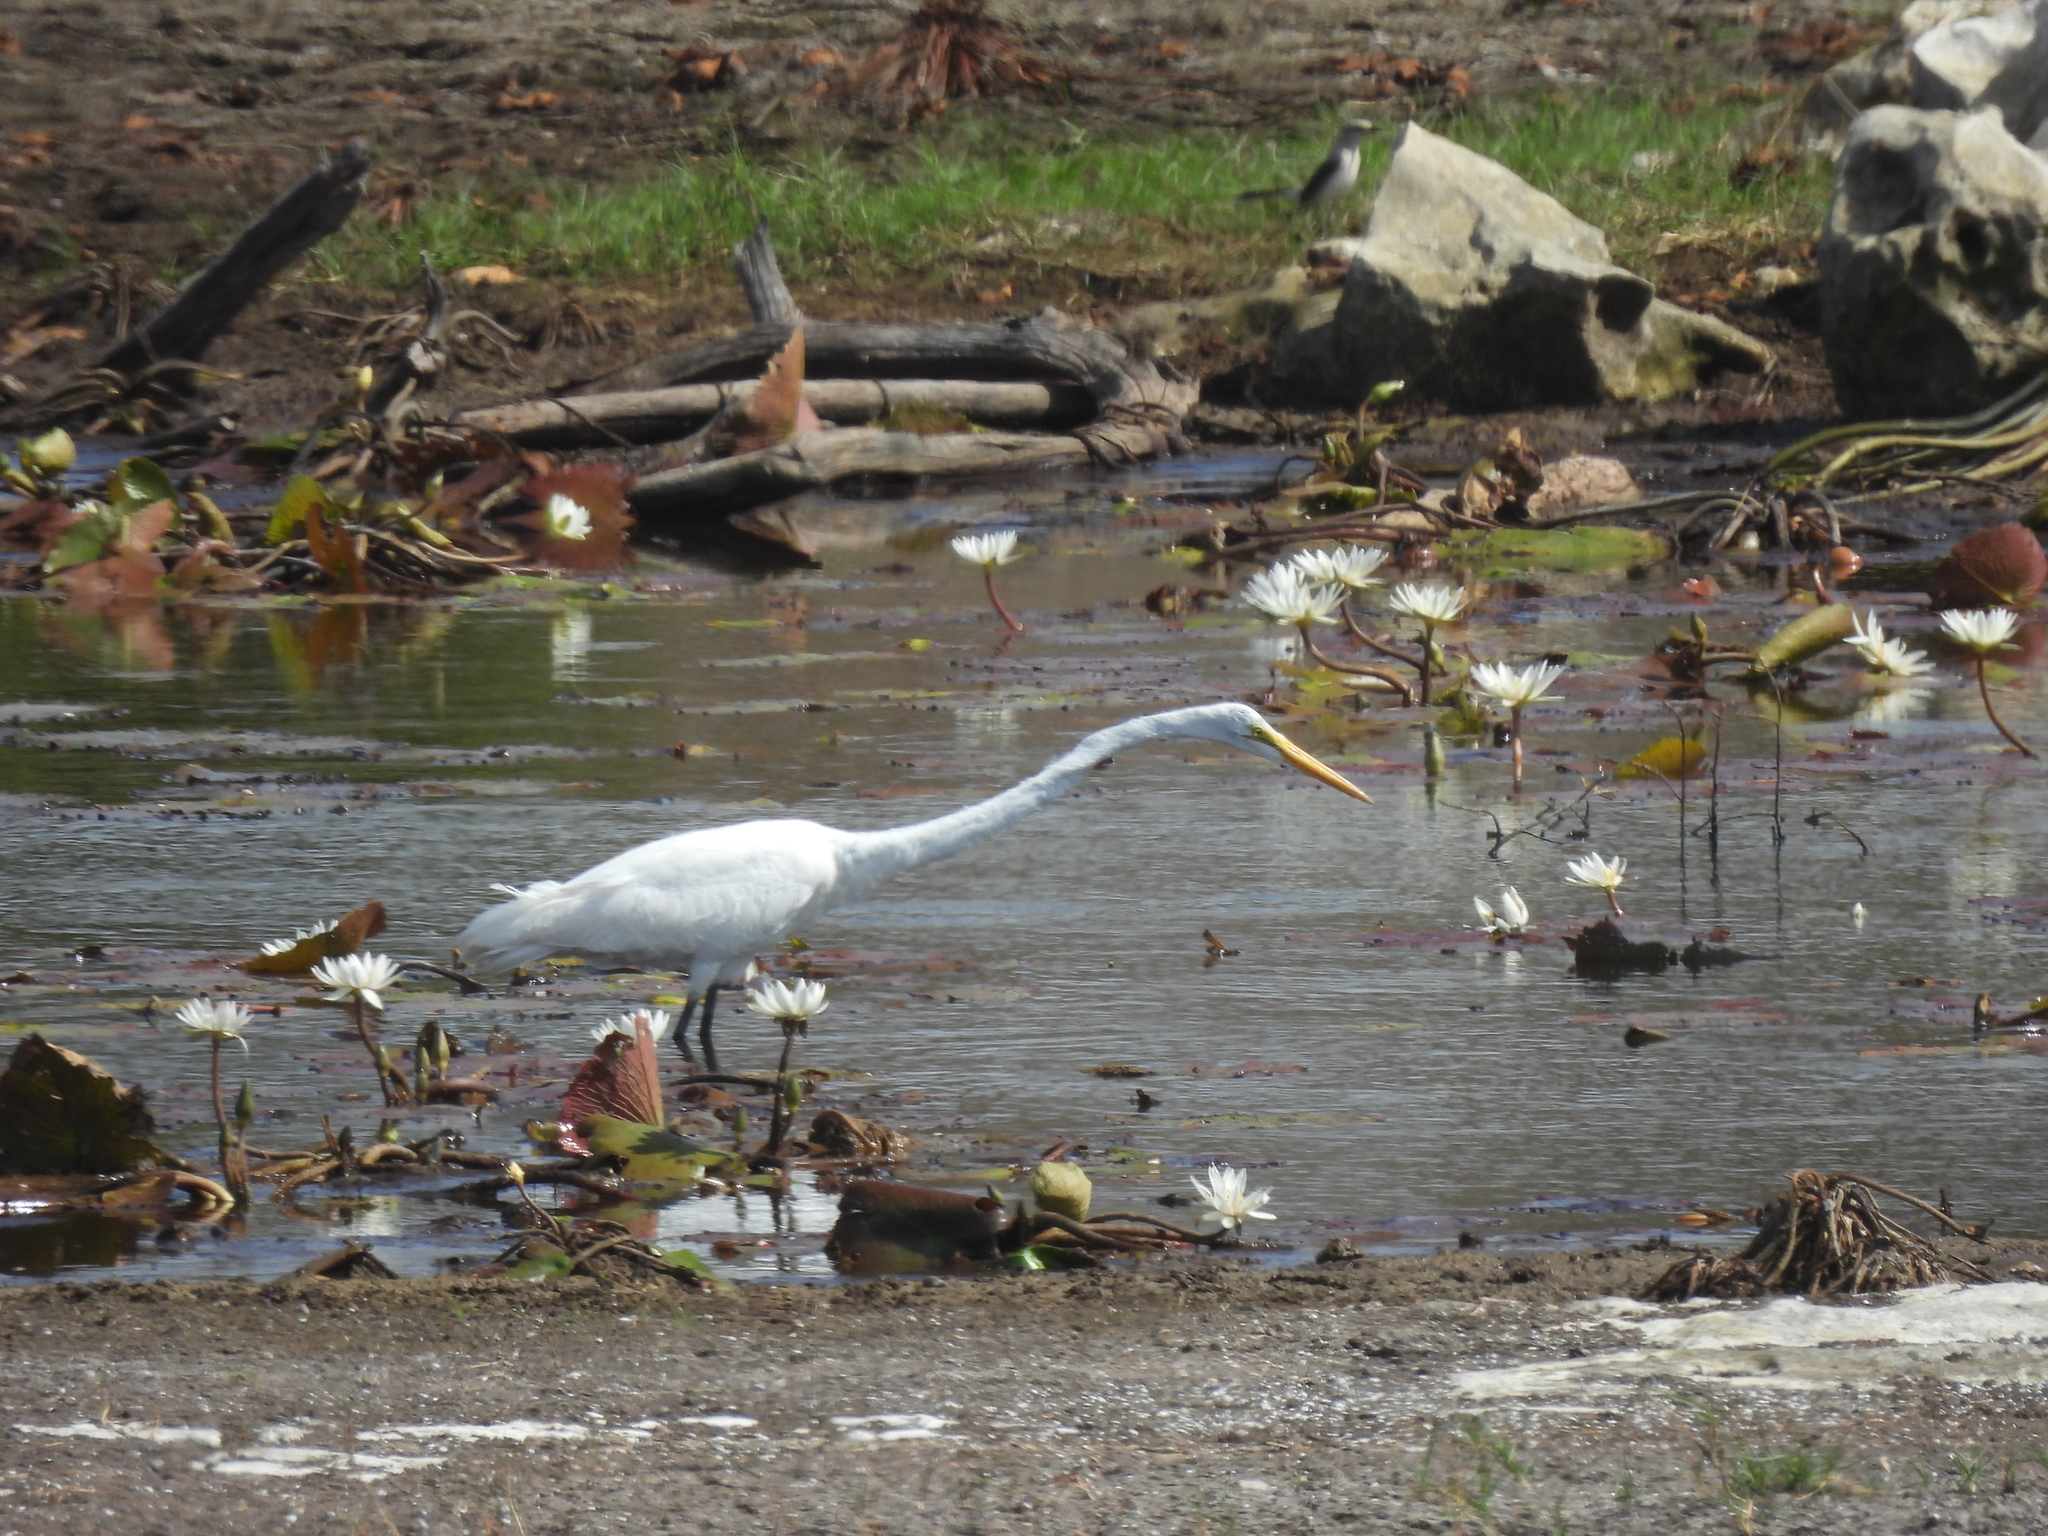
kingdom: Animalia
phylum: Chordata
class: Aves
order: Pelecaniformes
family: Ardeidae
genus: Ardea
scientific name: Ardea alba
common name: Great egret
